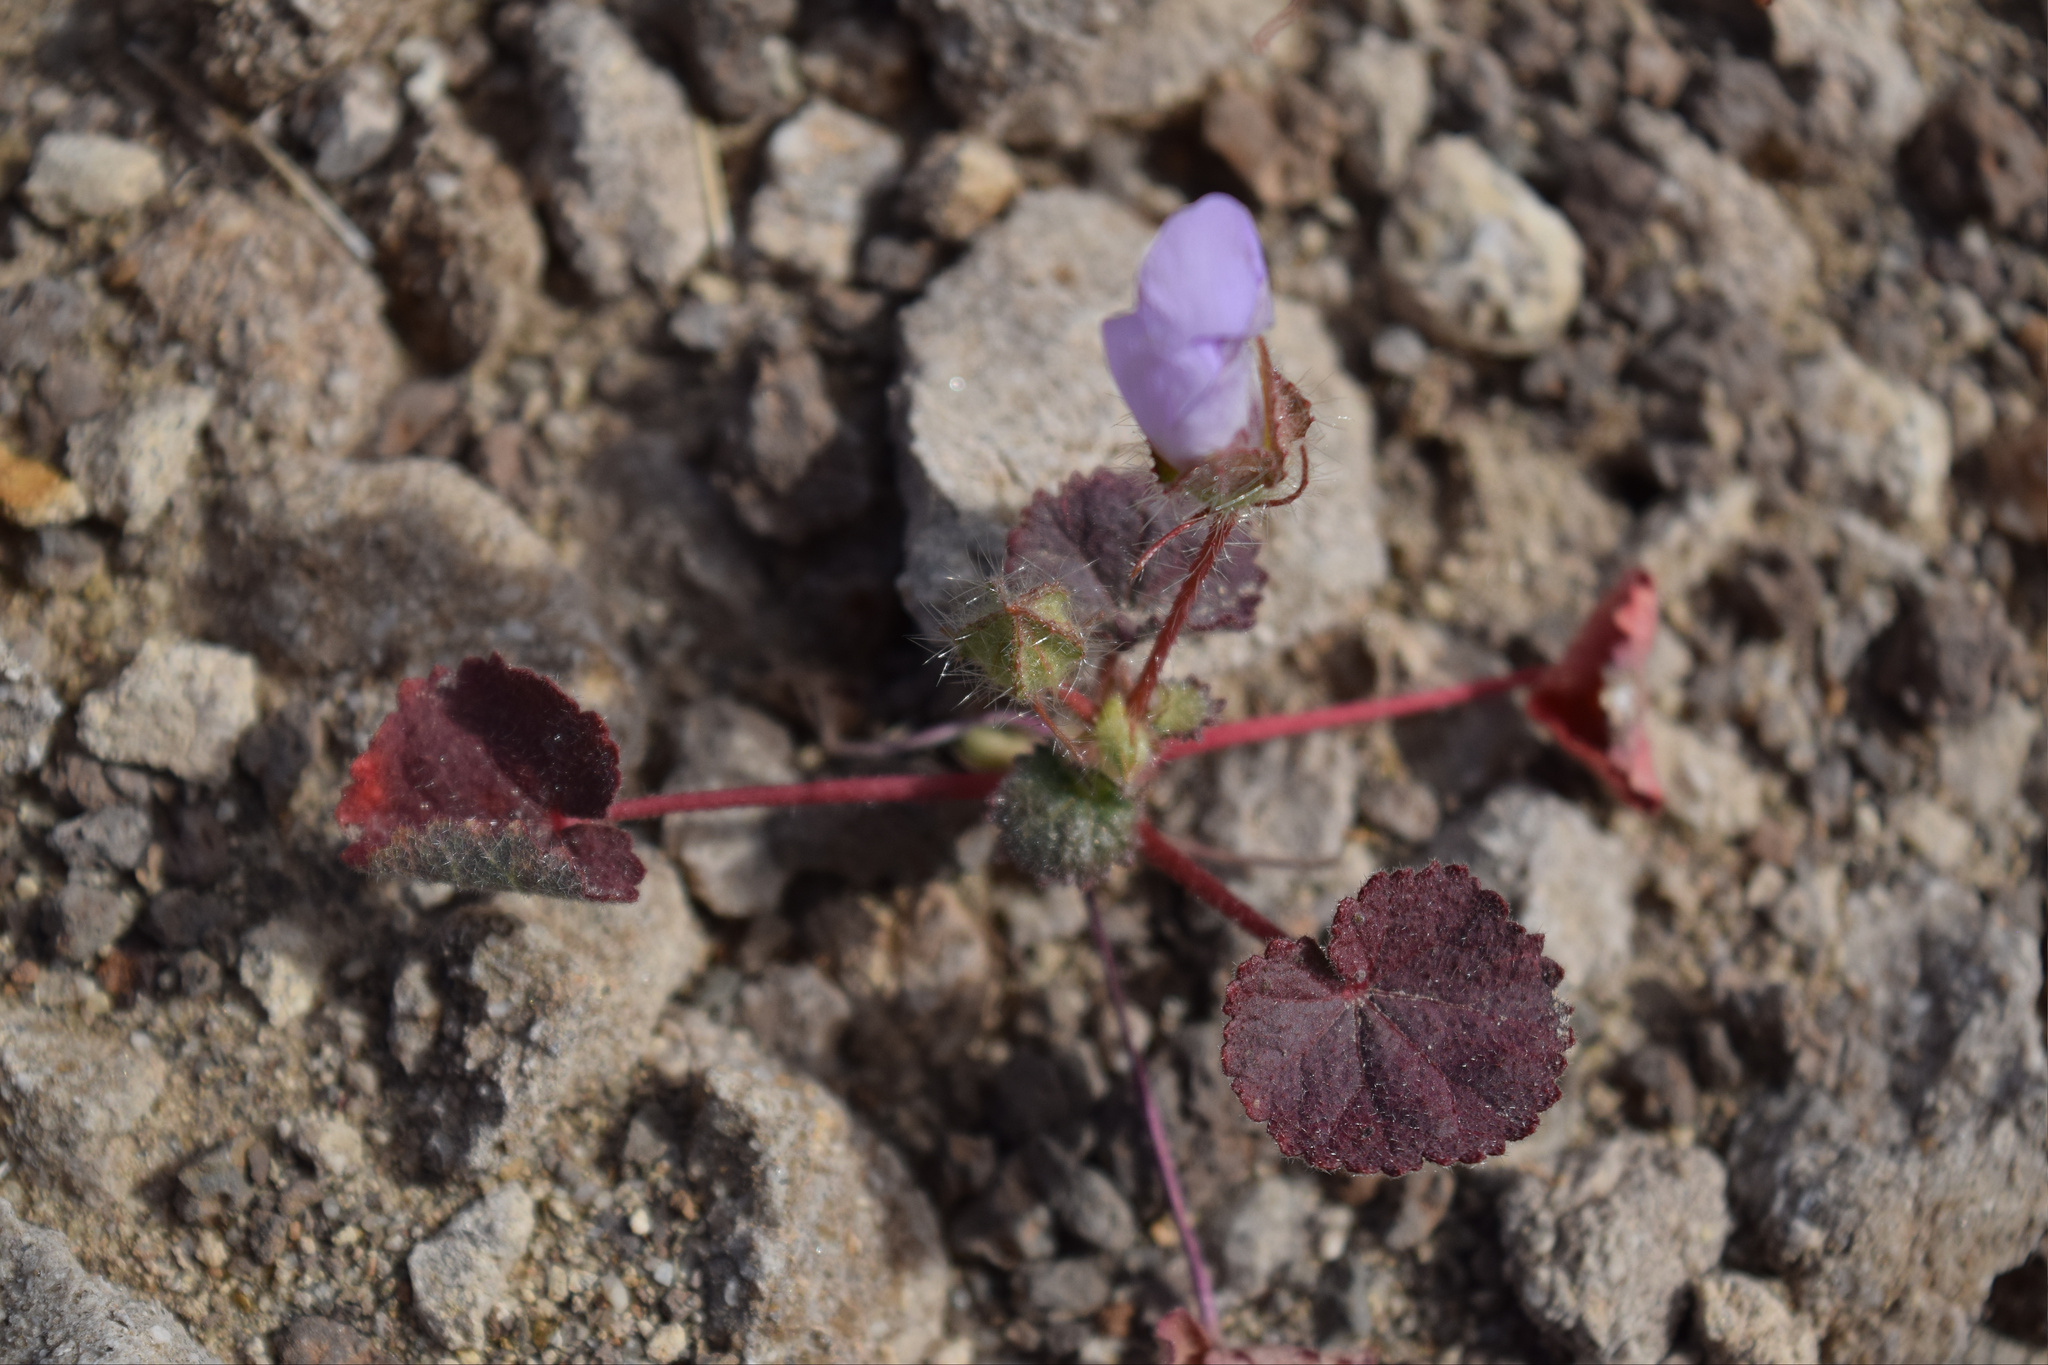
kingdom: Plantae
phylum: Tracheophyta
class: Magnoliopsida
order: Malvales
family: Malvaceae
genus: Eremalche
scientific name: Eremalche rotundifolia
